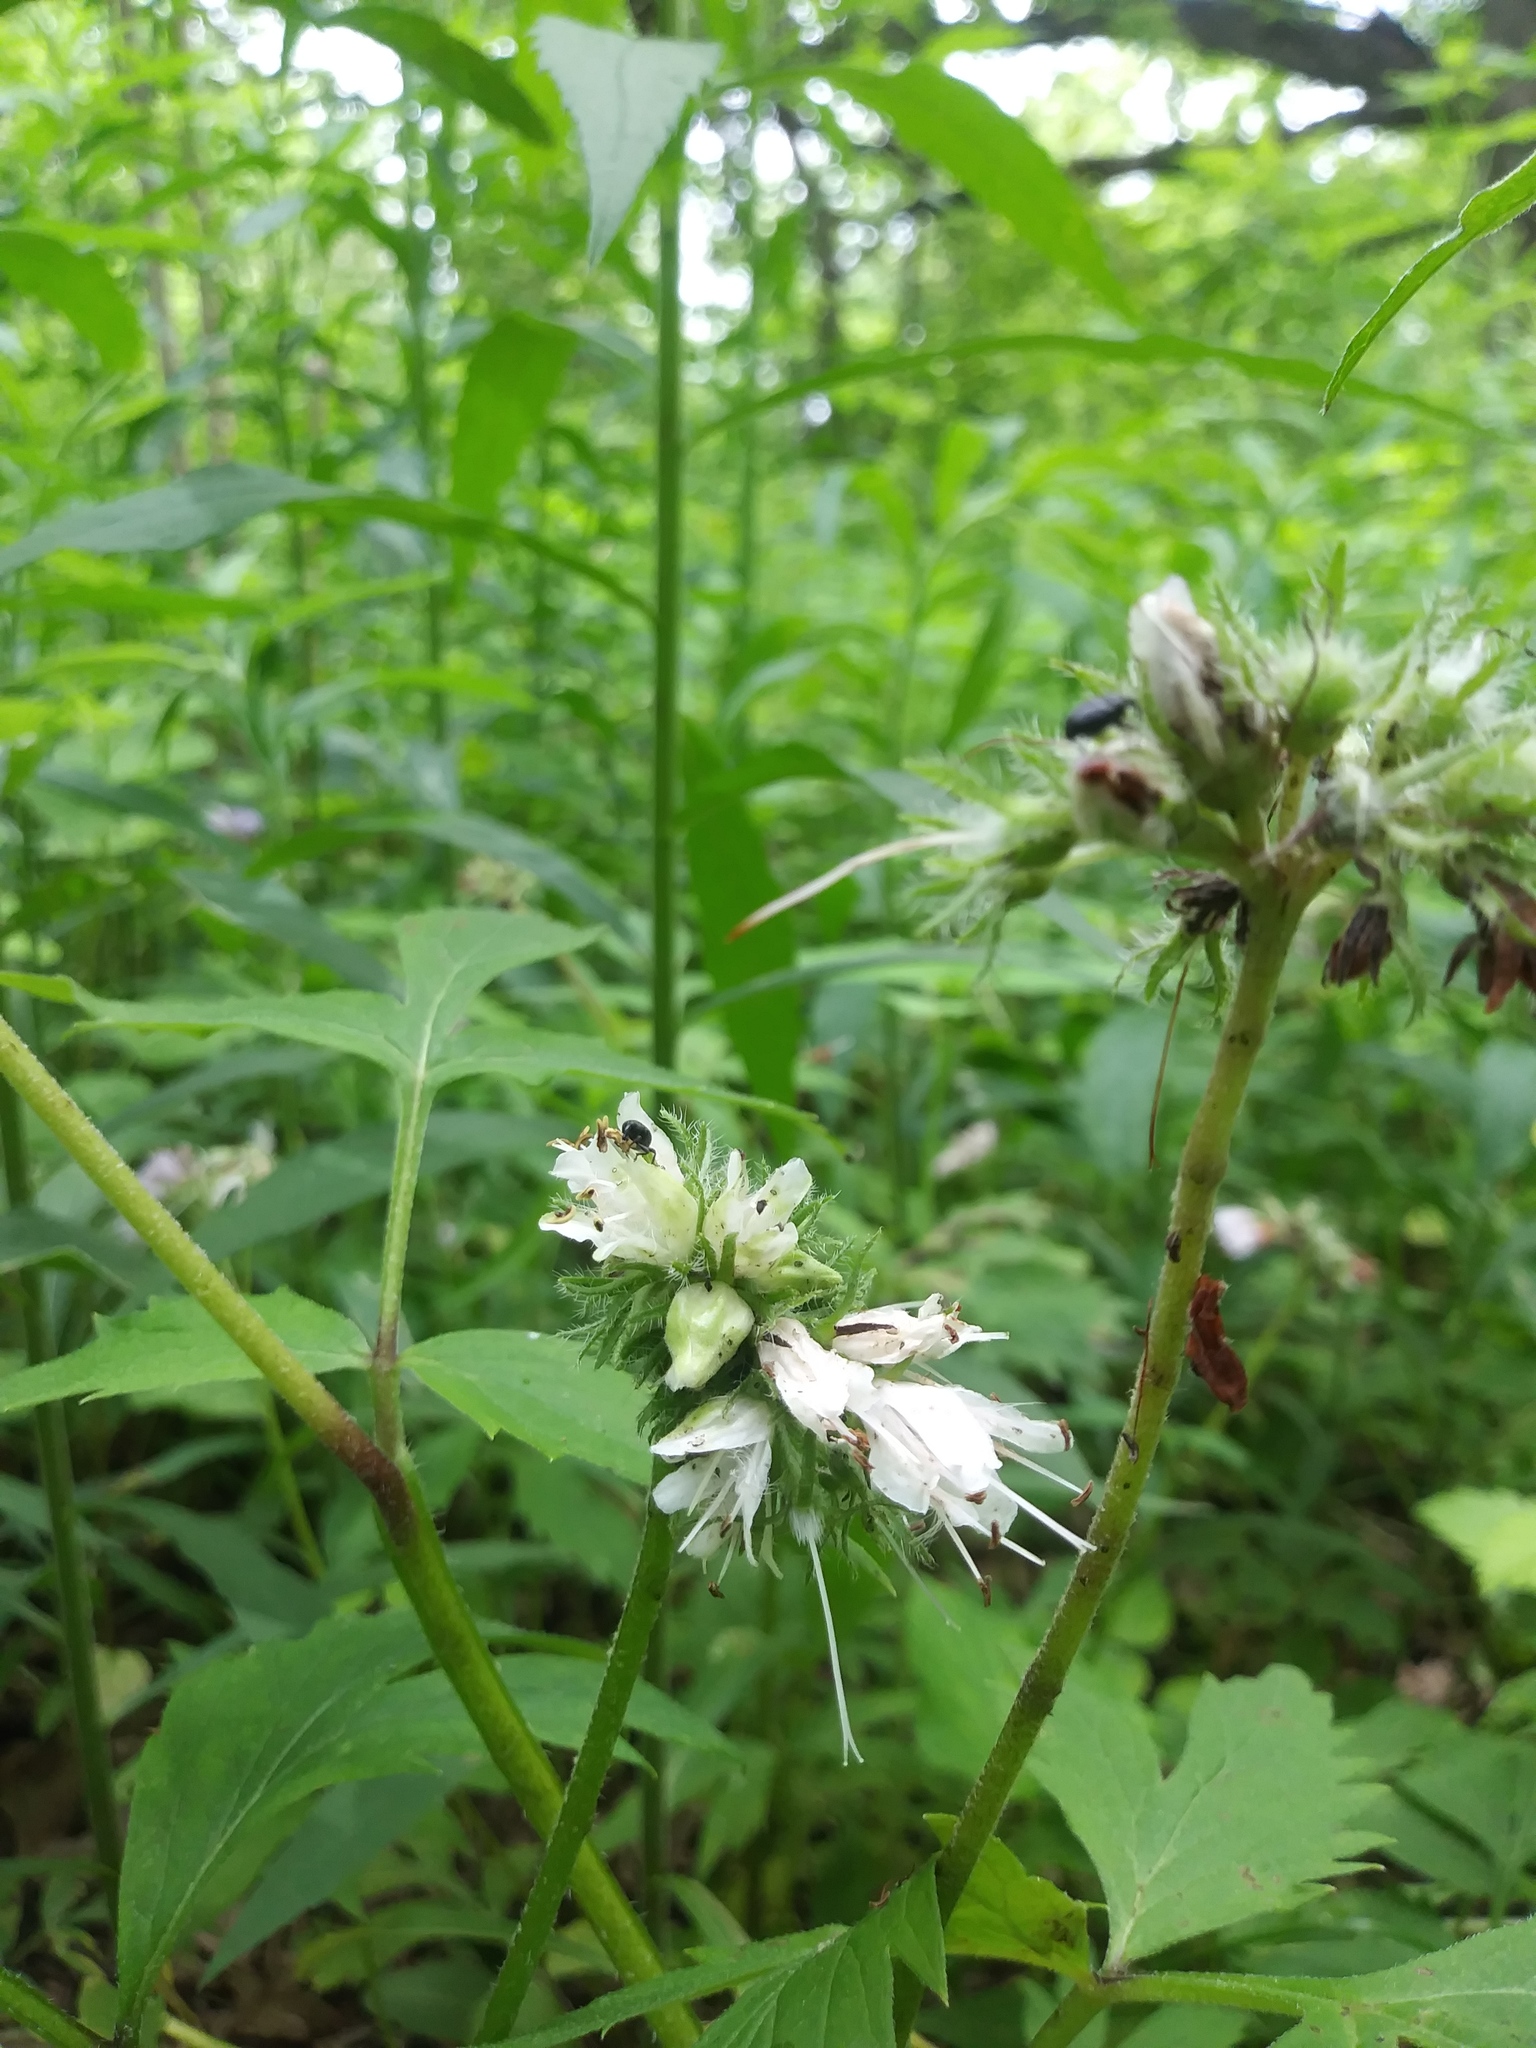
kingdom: Plantae
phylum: Tracheophyta
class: Magnoliopsida
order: Boraginales
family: Hydrophyllaceae
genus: Hydrophyllum
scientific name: Hydrophyllum virginianum
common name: Virginia waterleaf
